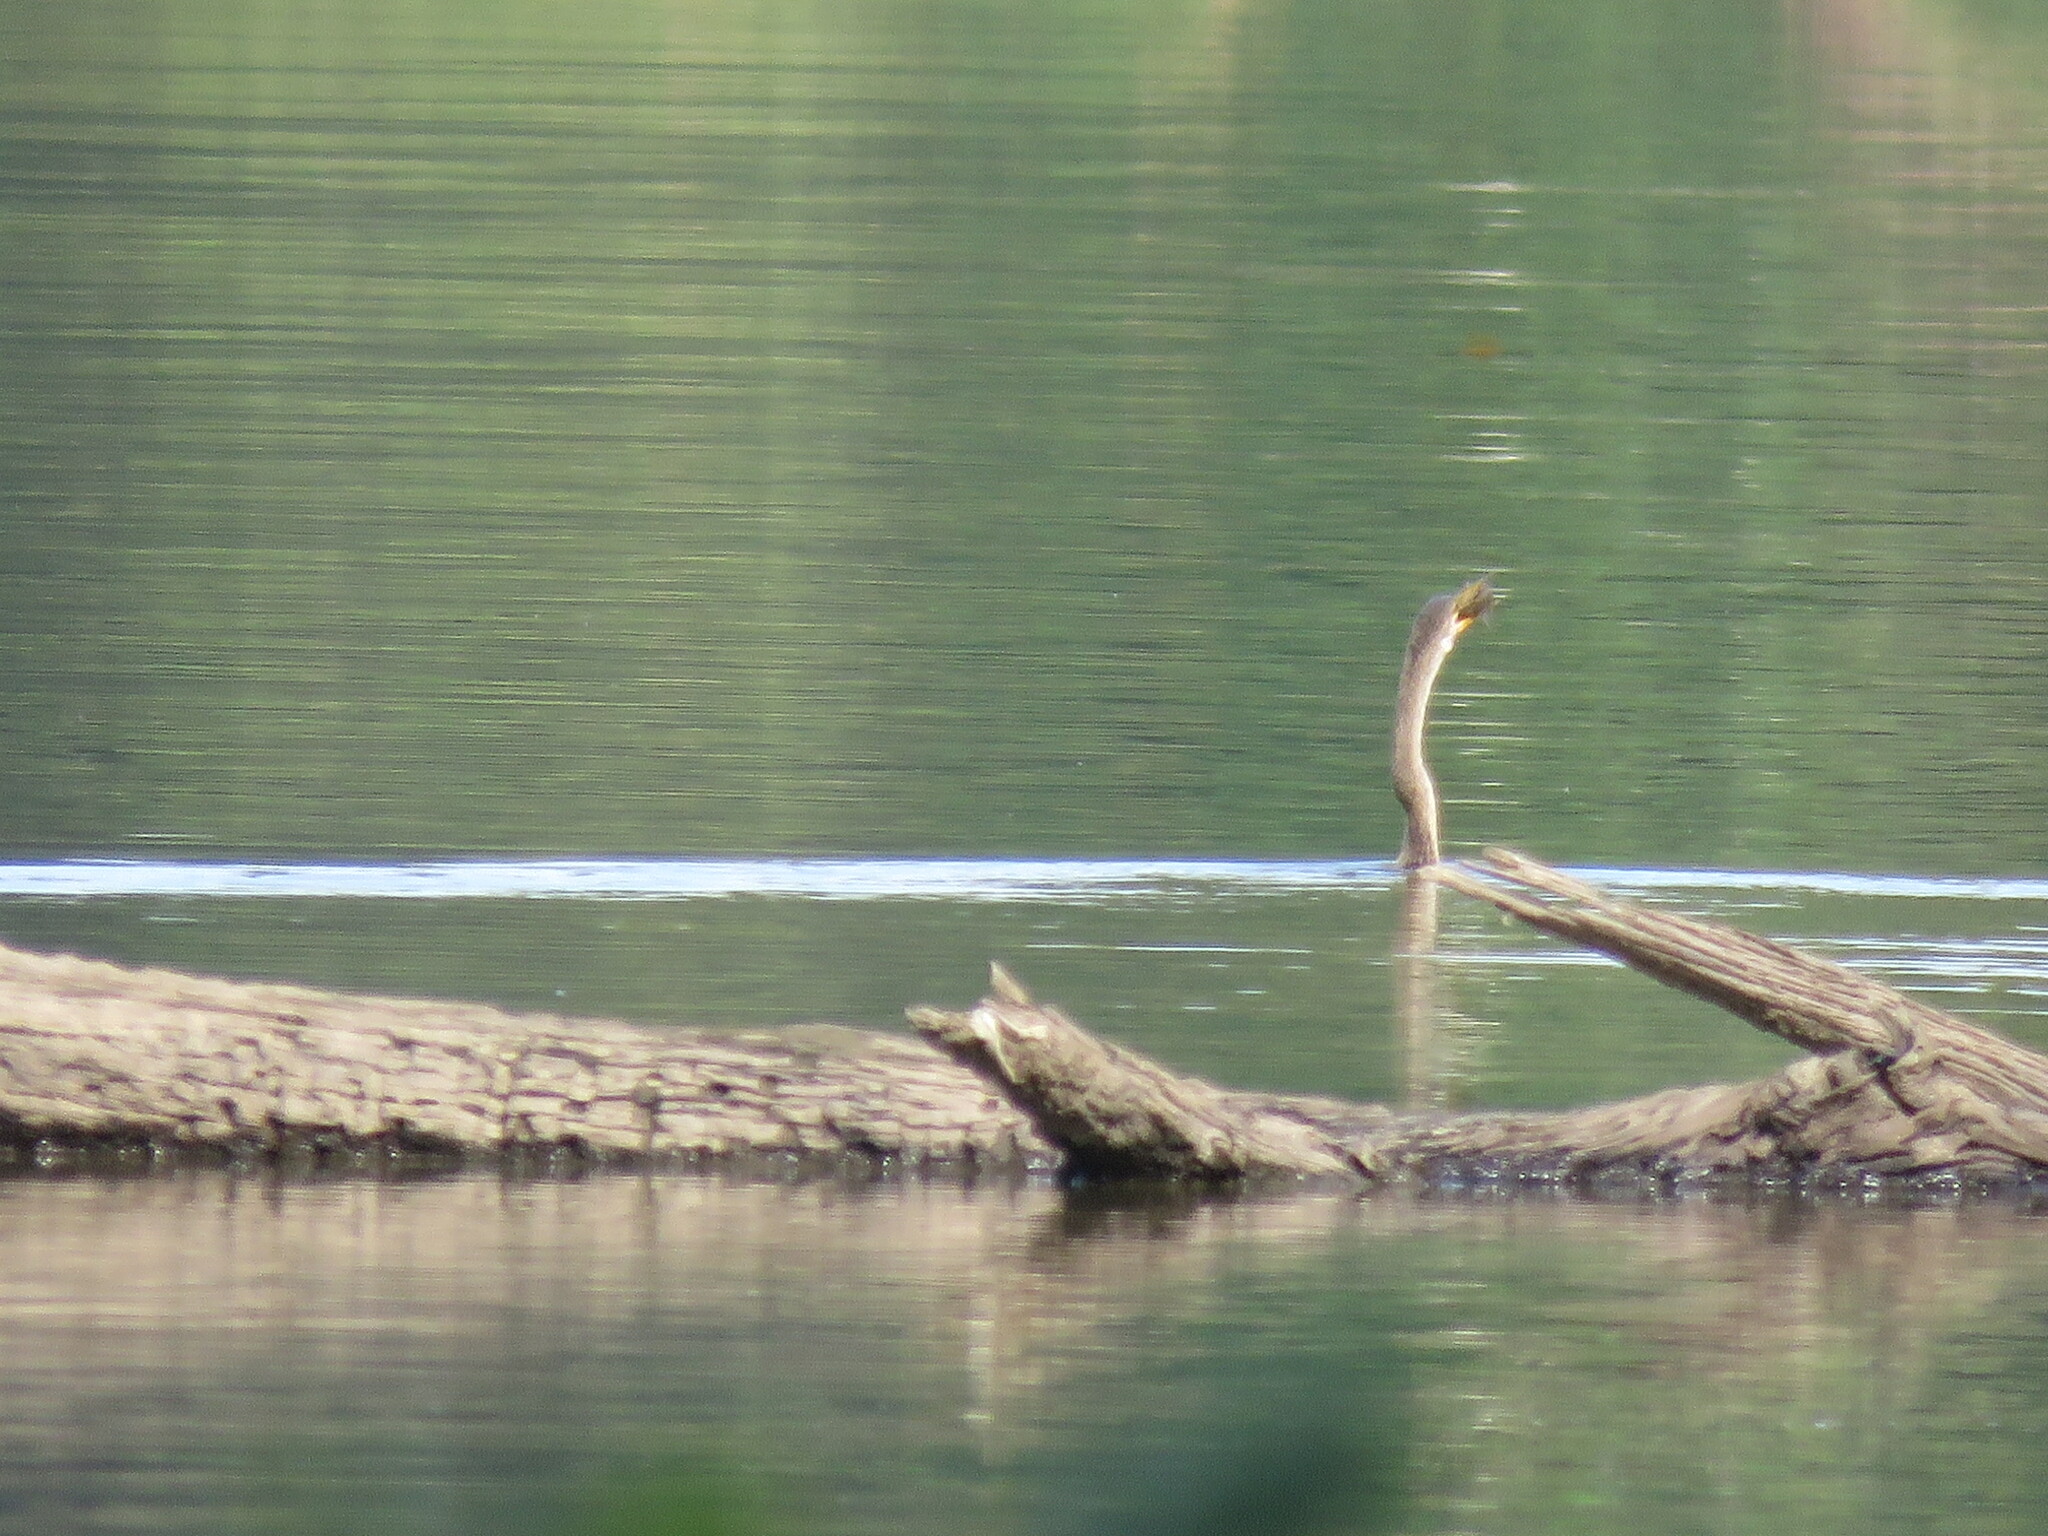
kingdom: Animalia
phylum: Chordata
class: Aves
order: Suliformes
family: Anhingidae
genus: Anhinga
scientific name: Anhinga anhinga
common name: Anhinga
